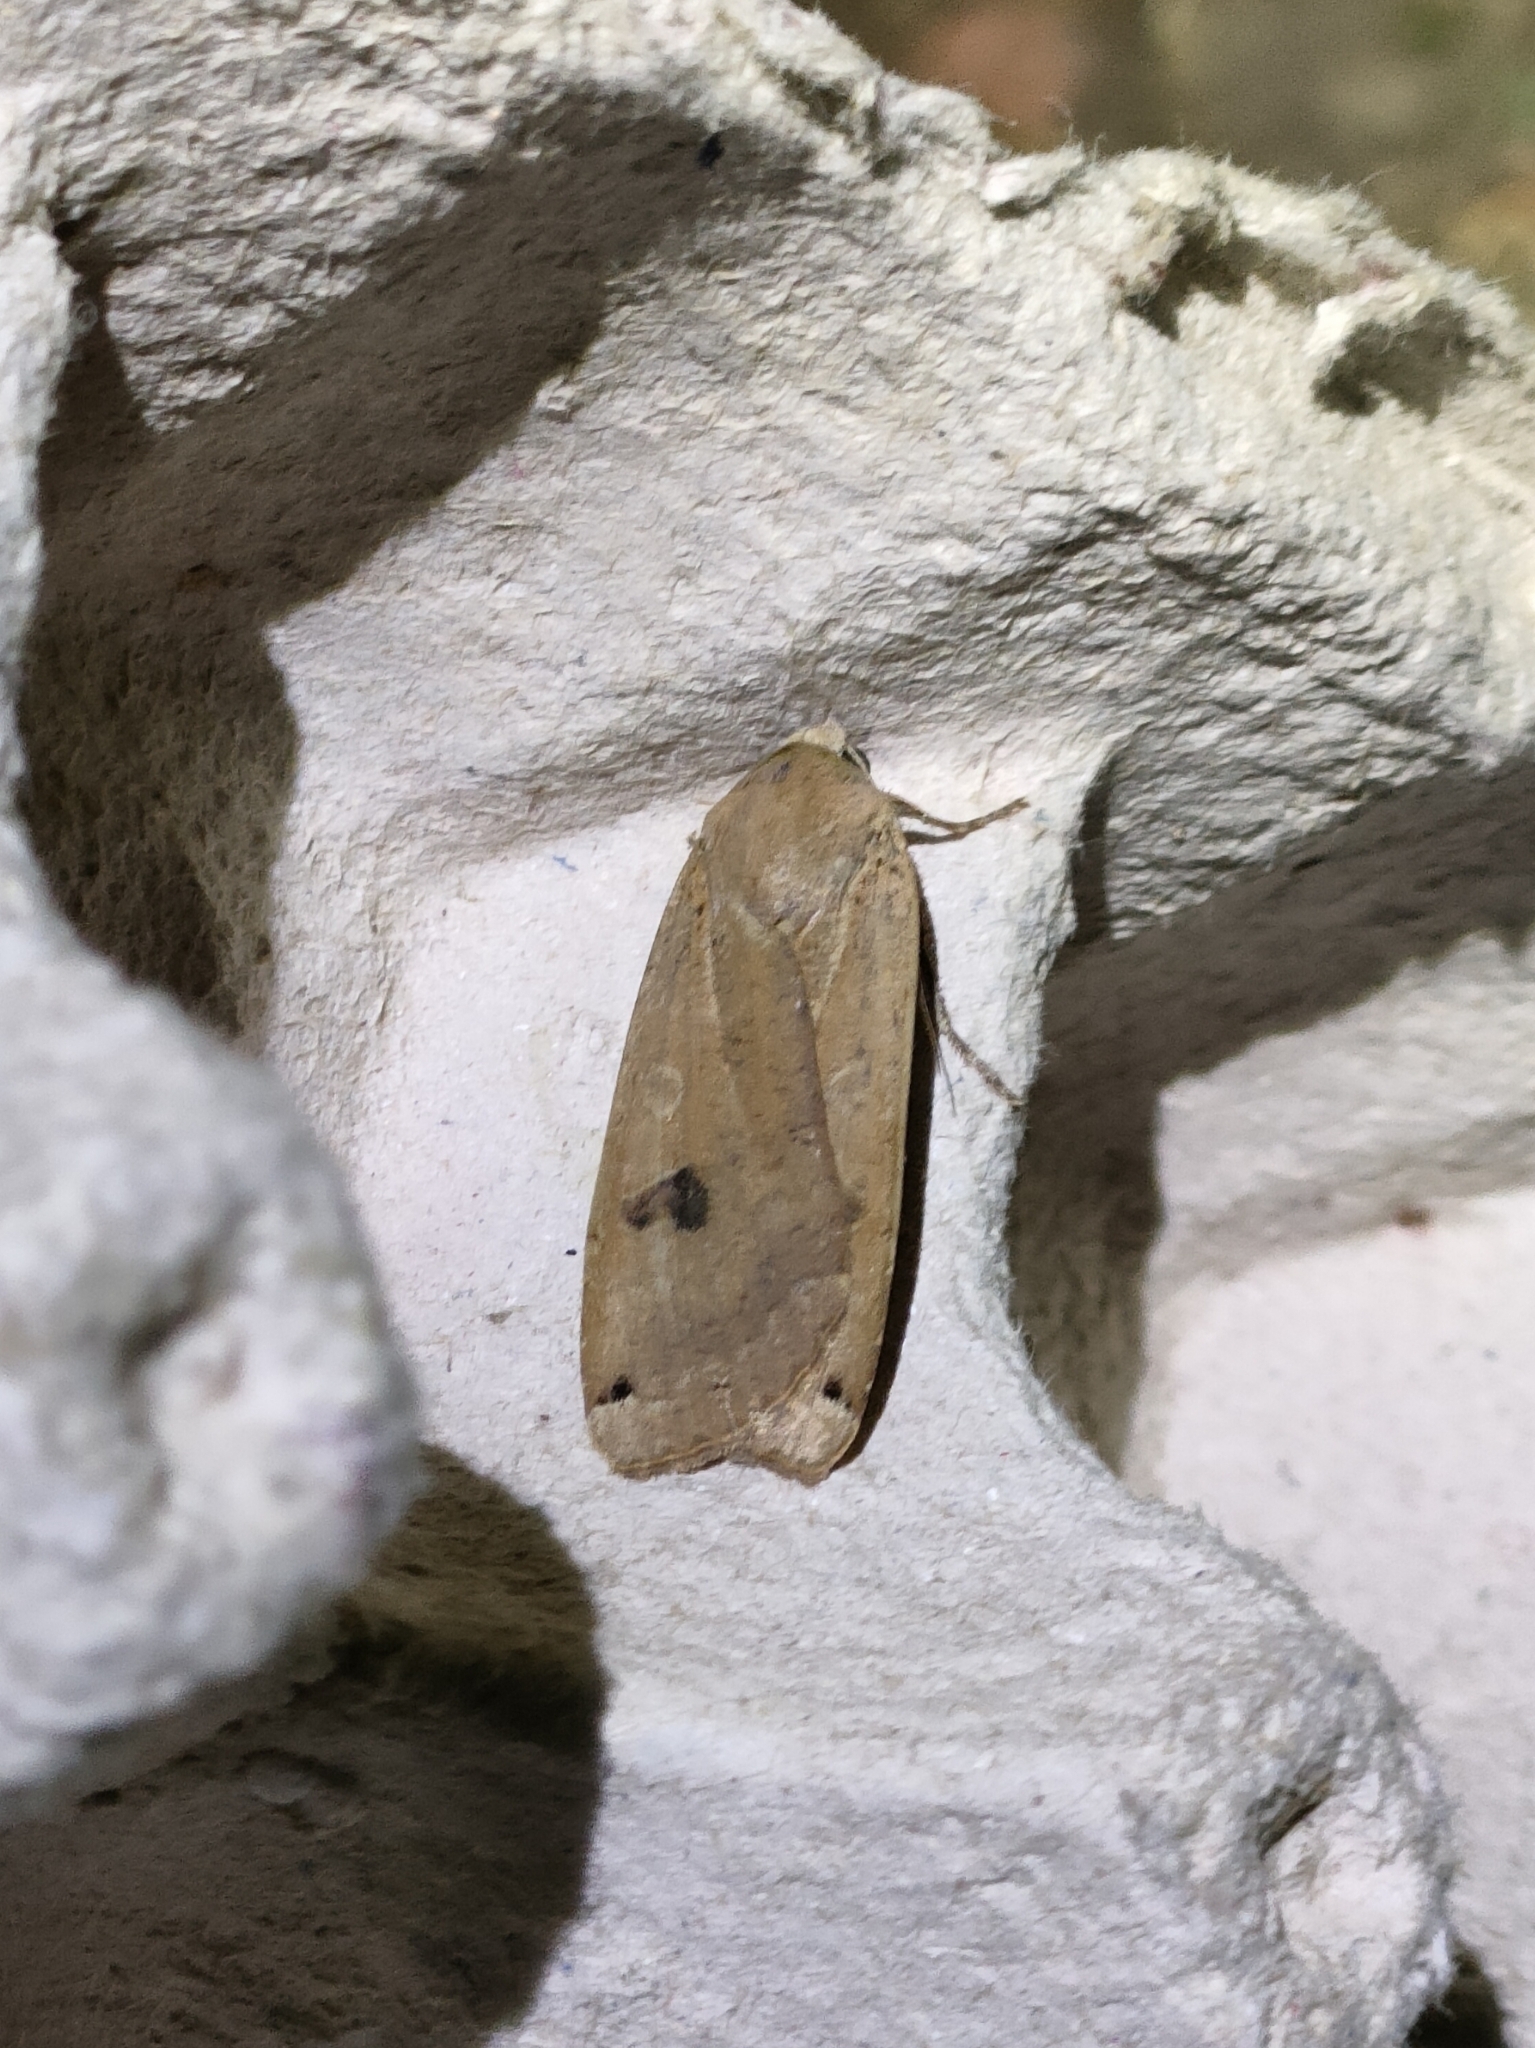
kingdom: Animalia
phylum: Arthropoda
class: Insecta
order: Lepidoptera
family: Noctuidae
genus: Noctua
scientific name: Noctua pronuba
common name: Large yellow underwing
